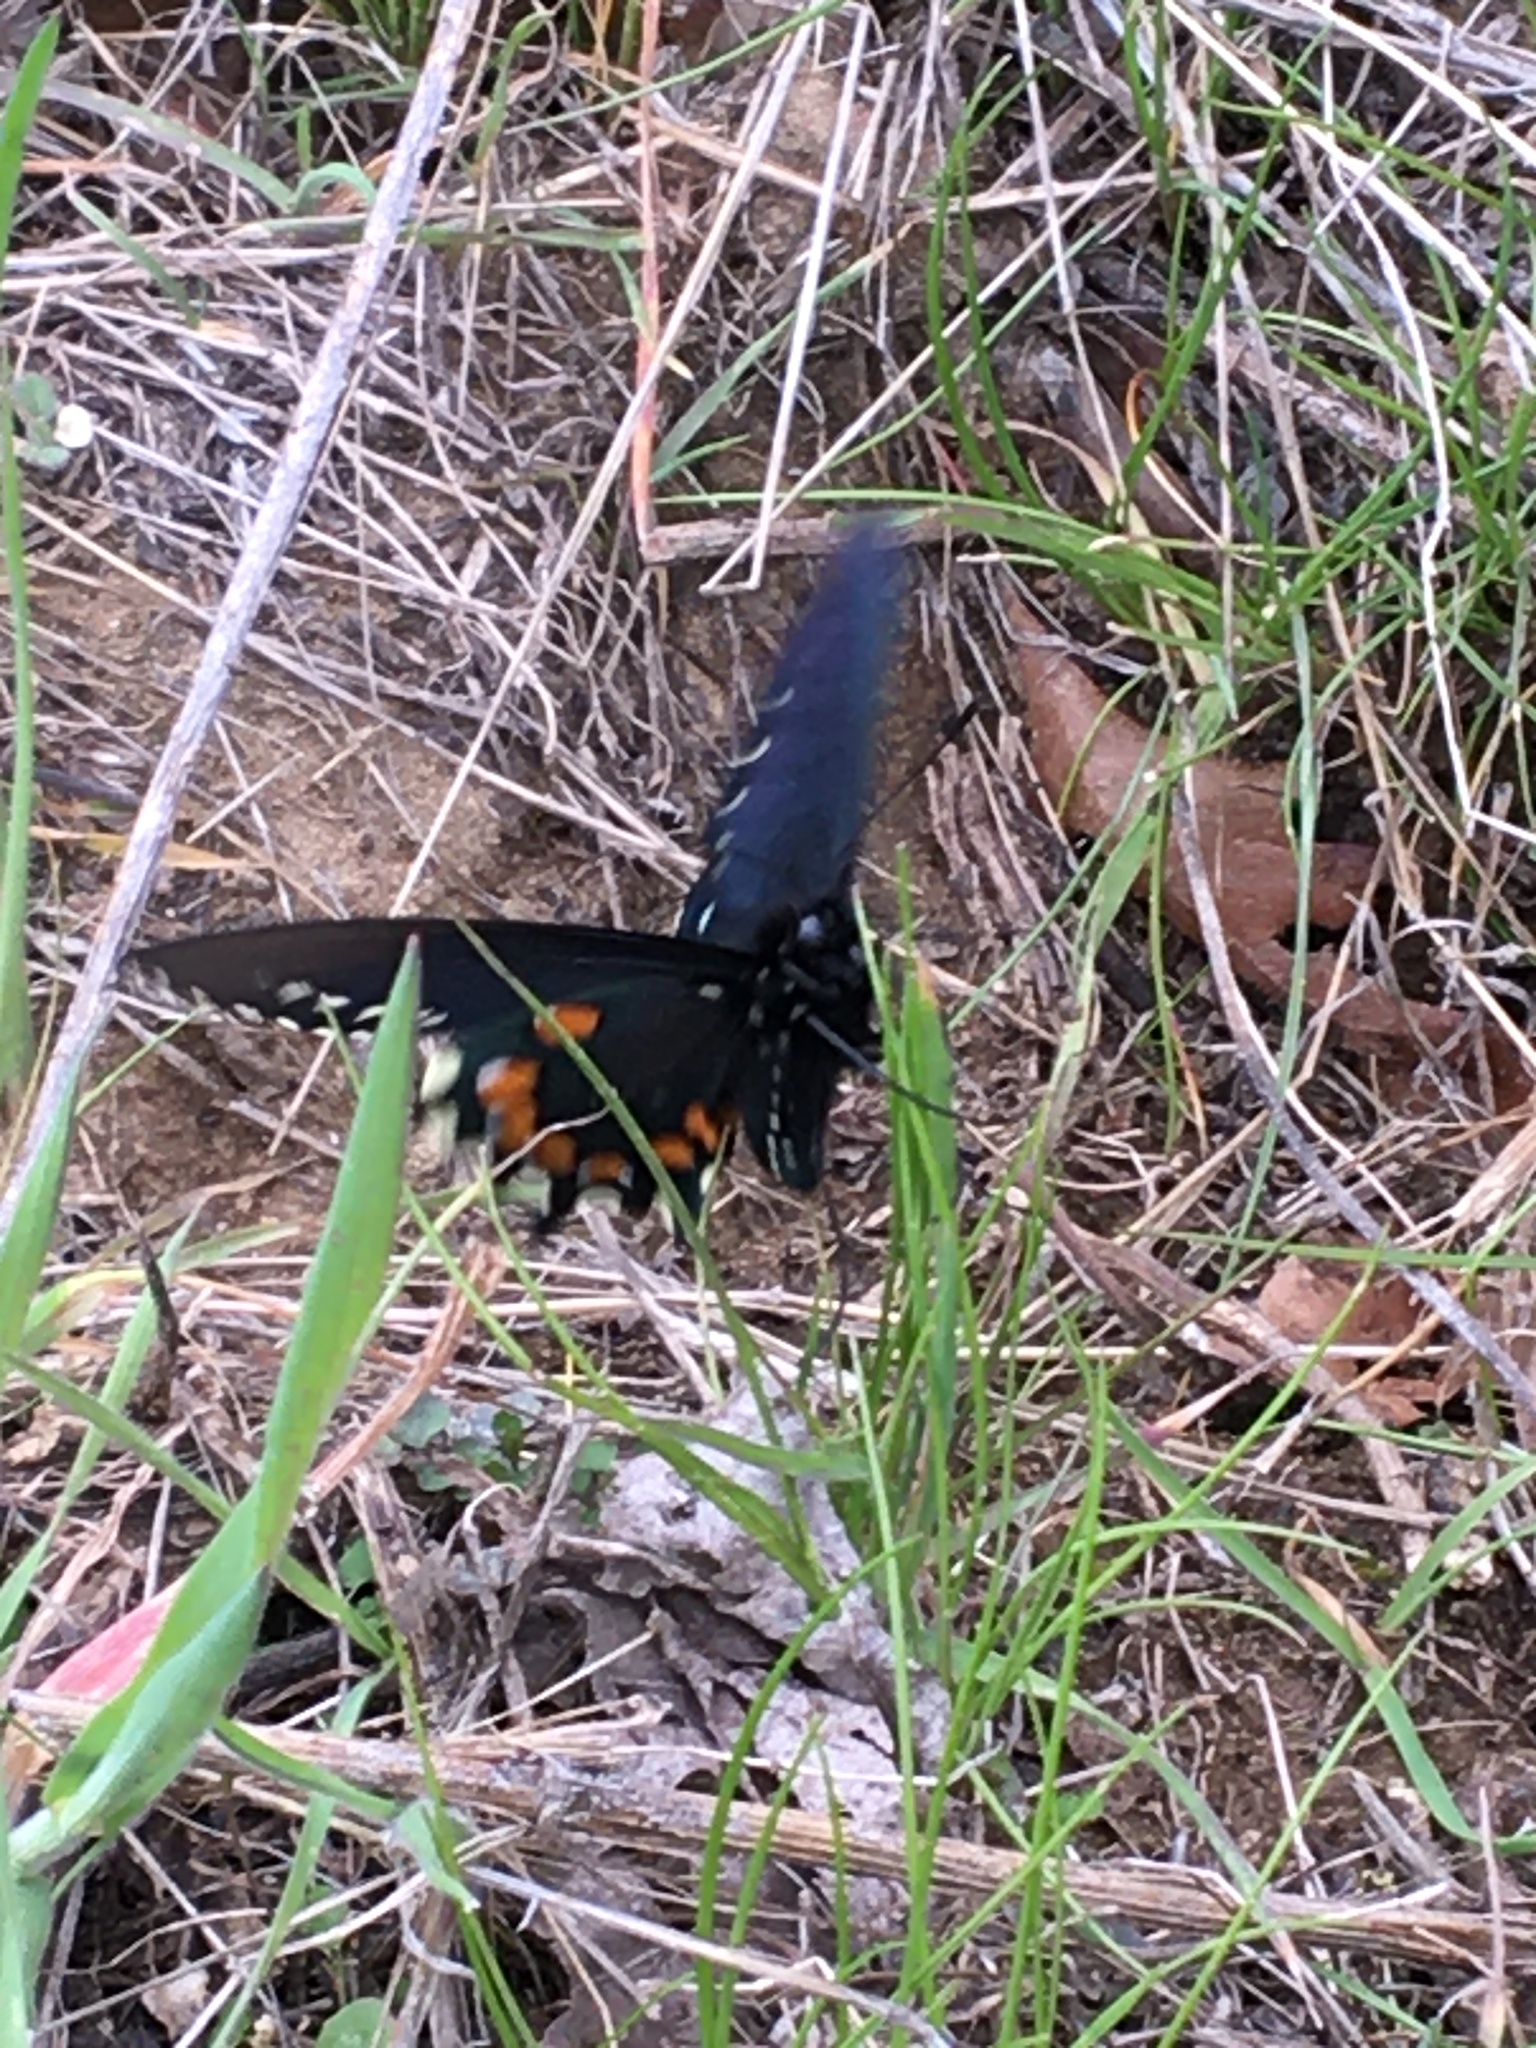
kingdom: Animalia
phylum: Arthropoda
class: Insecta
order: Lepidoptera
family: Papilionidae
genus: Battus
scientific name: Battus philenor
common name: Pipevine swallowtail
